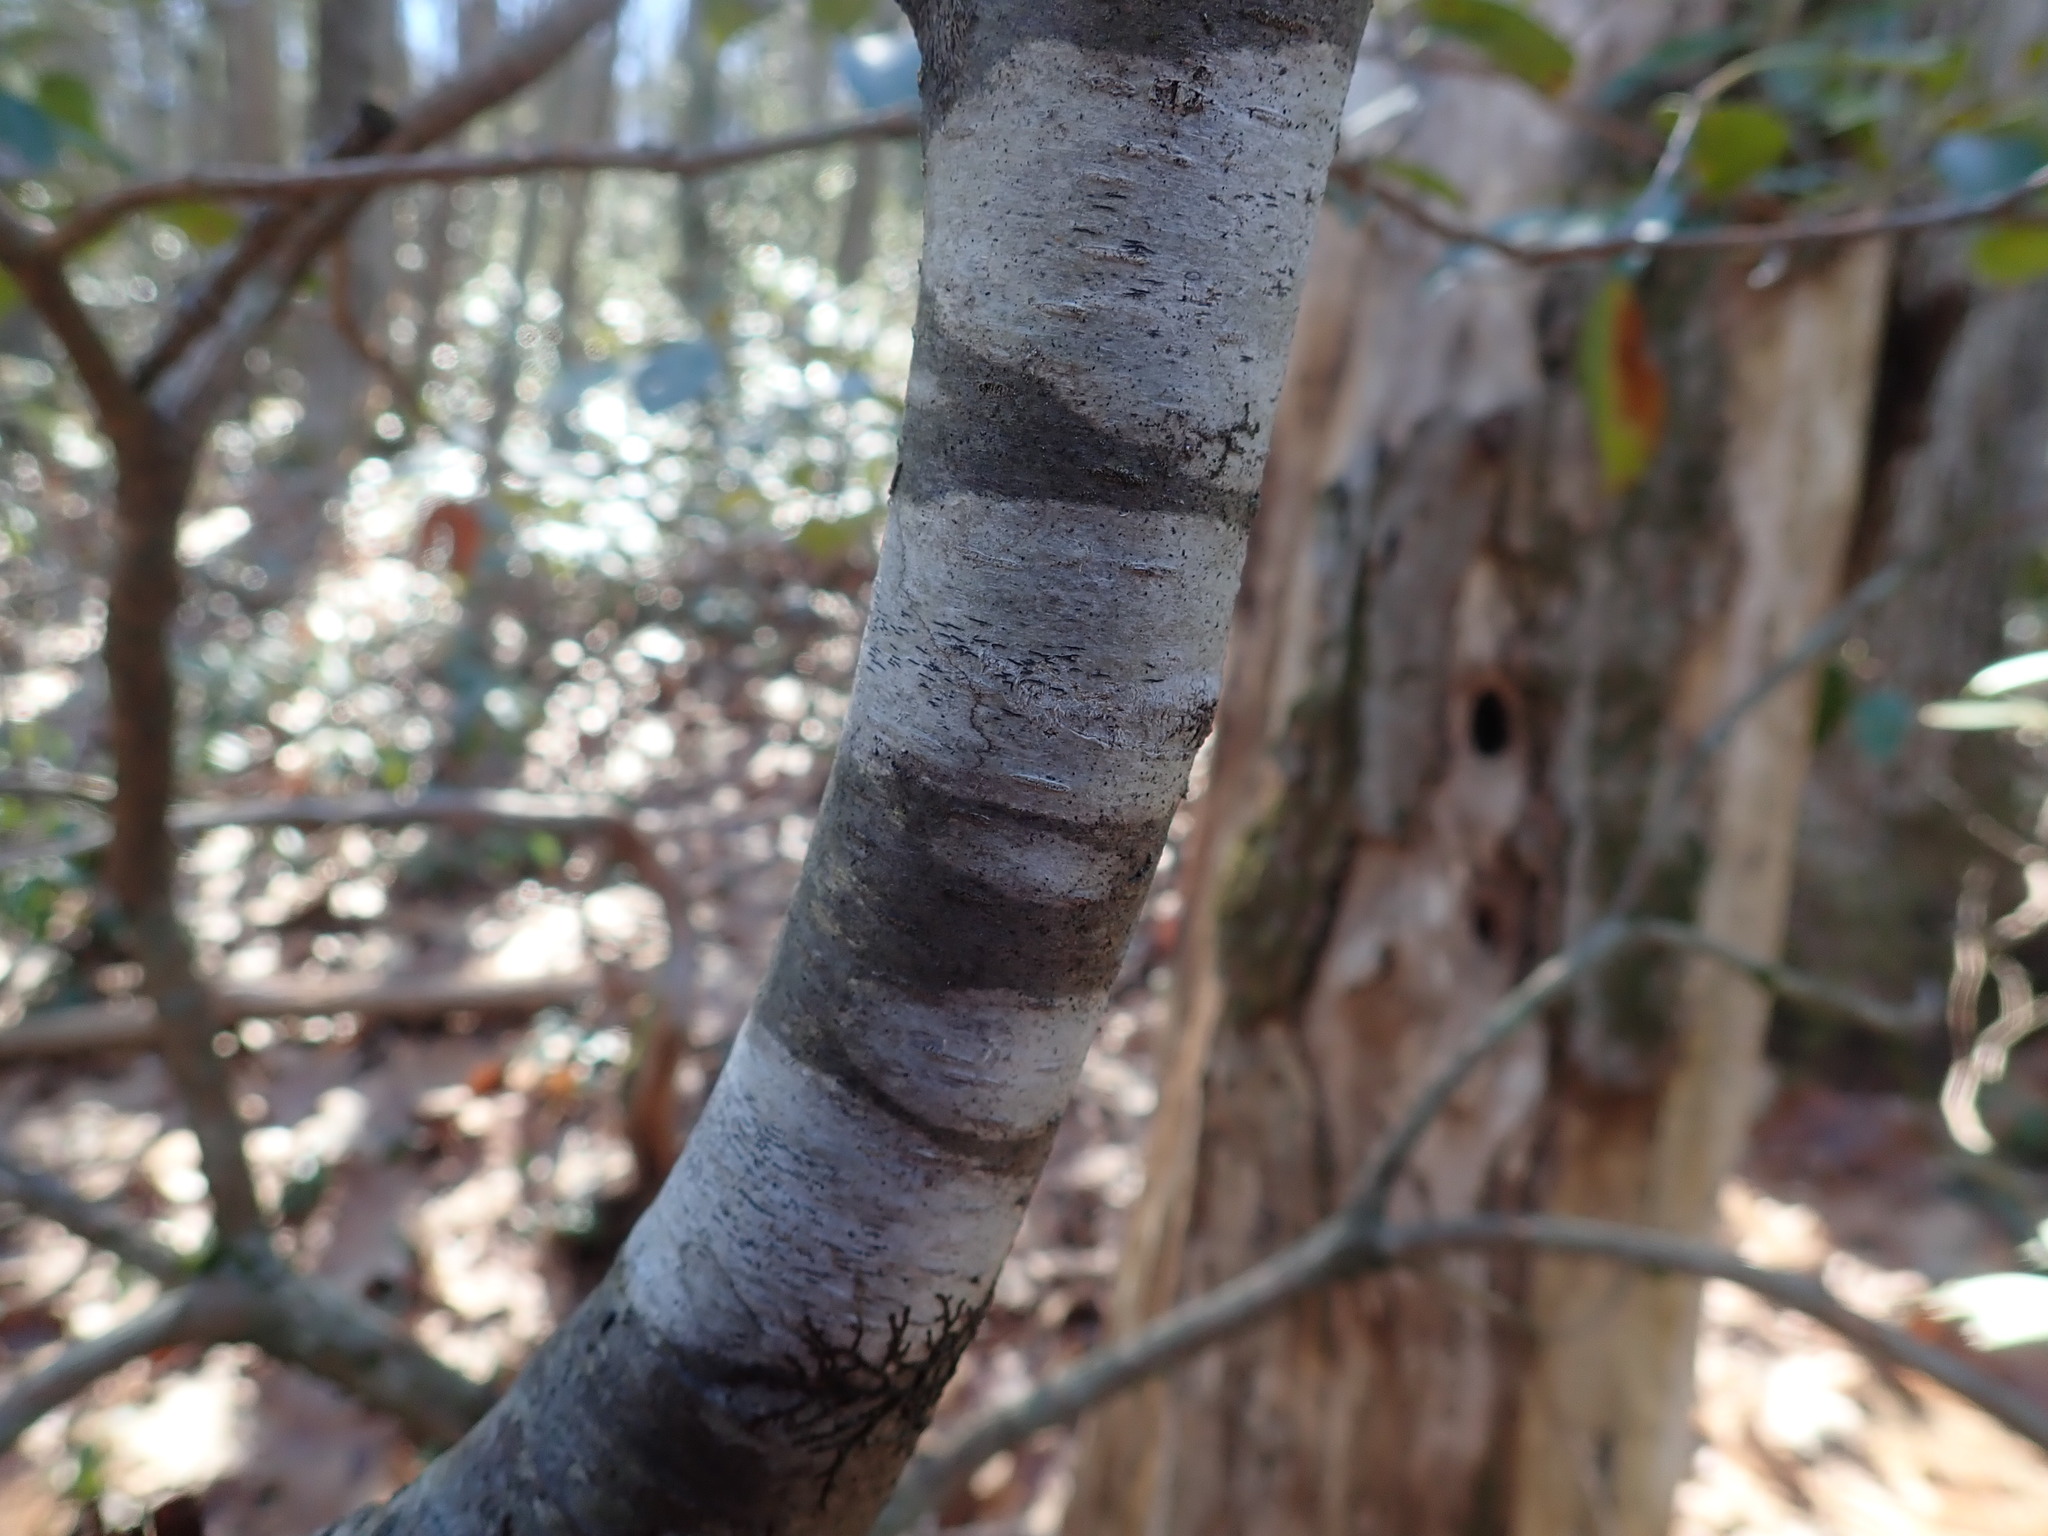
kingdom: Fungi
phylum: Ascomycota
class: Lecanoromycetes
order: Ostropales
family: Graphidaceae
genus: Graphis
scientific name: Graphis scripta
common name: Script lichen
